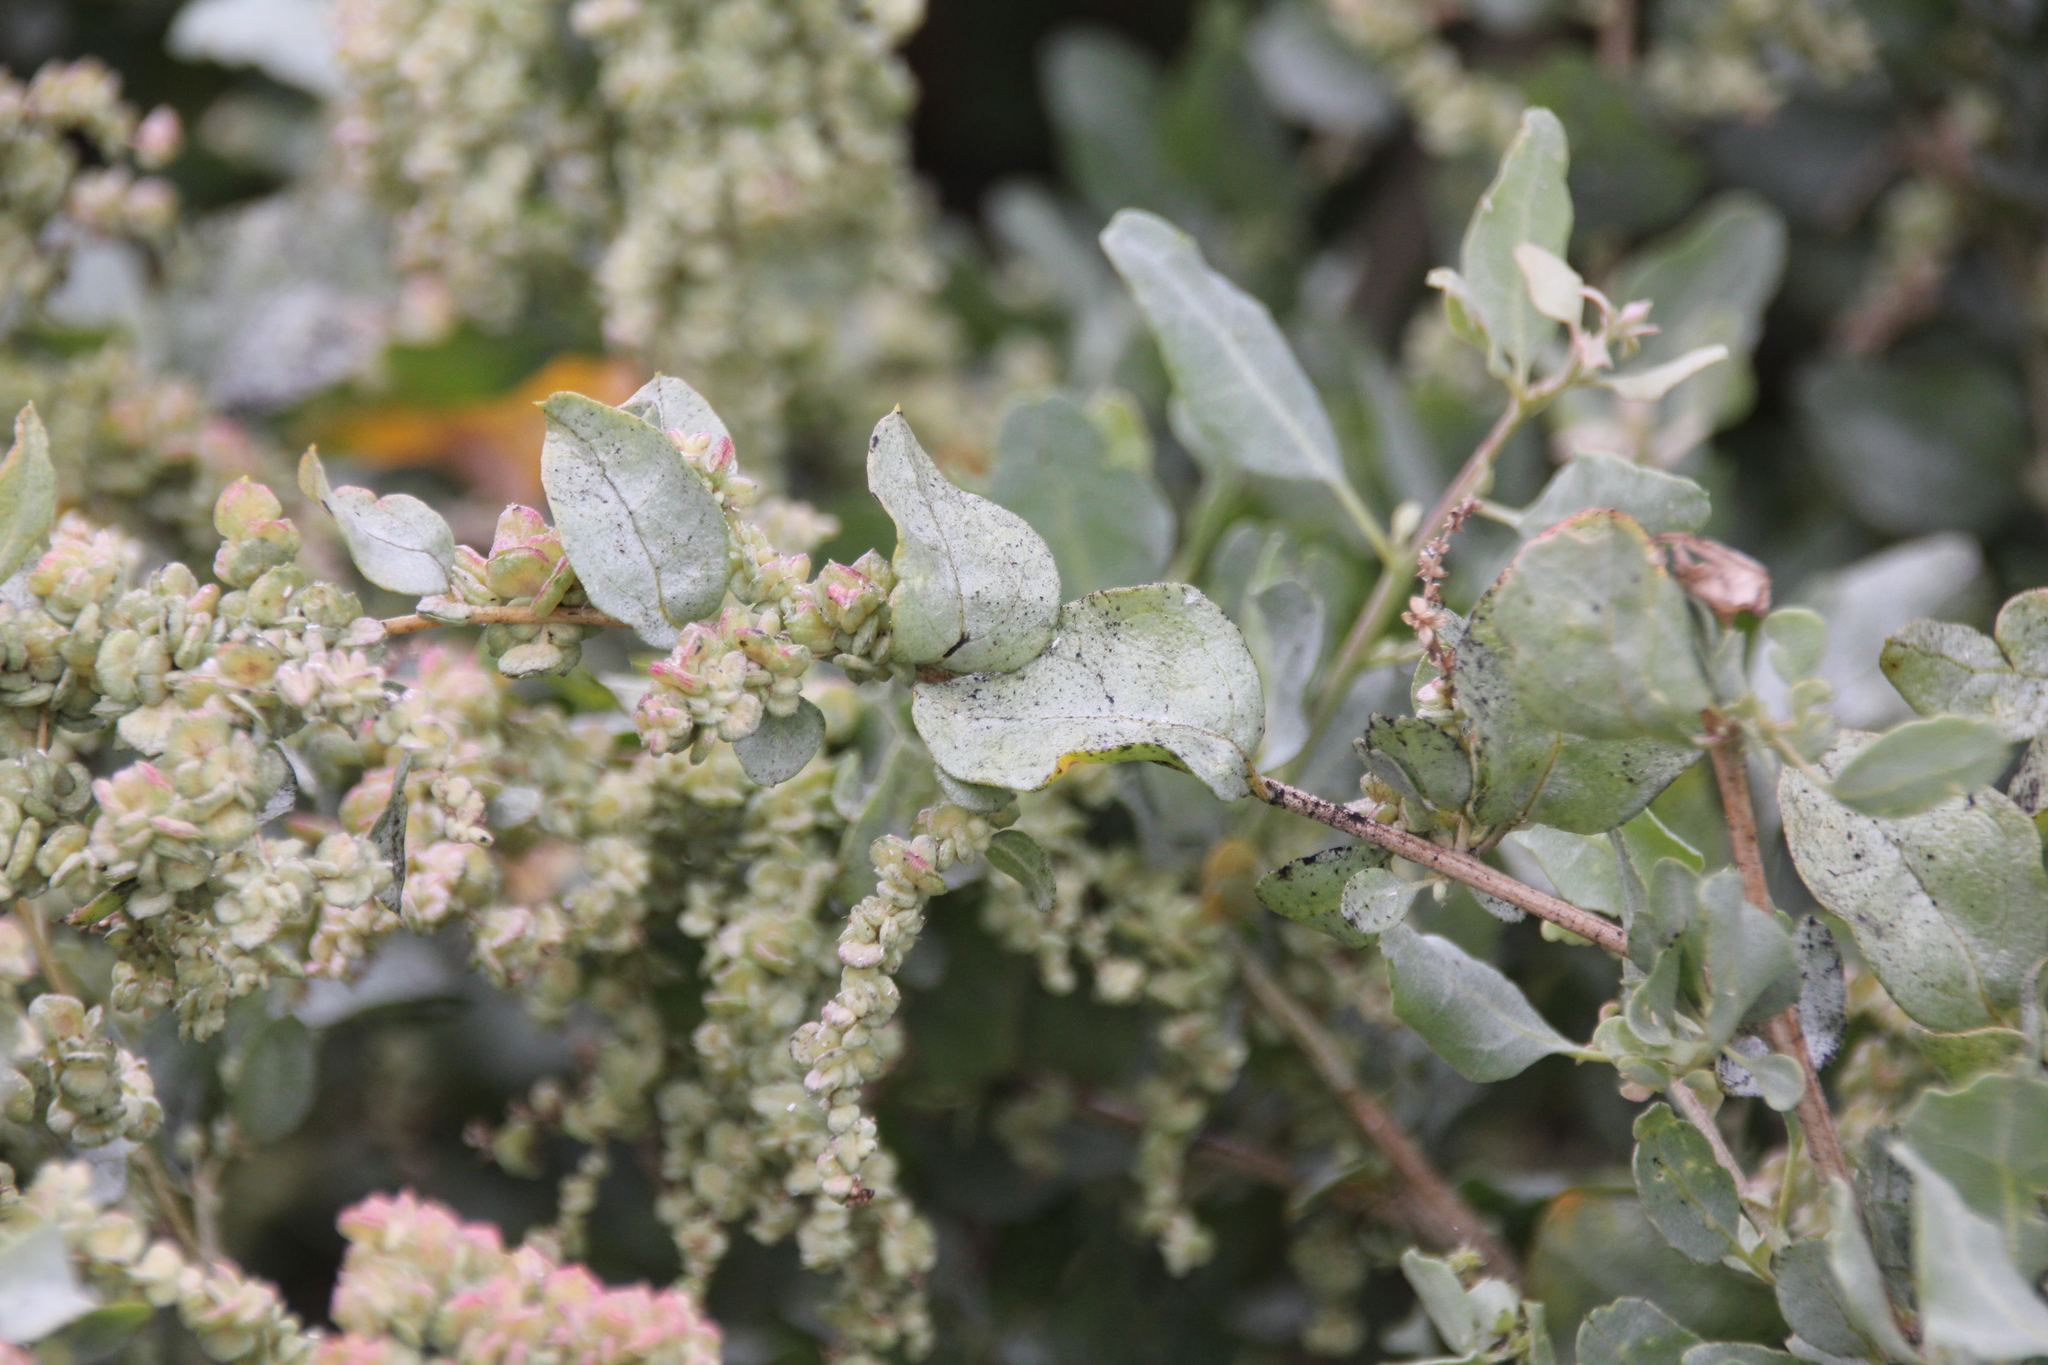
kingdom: Plantae
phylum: Tracheophyta
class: Magnoliopsida
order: Caryophyllales
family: Amaranthaceae
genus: Atriplex
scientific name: Atriplex lentiformis
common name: Big saltbush
